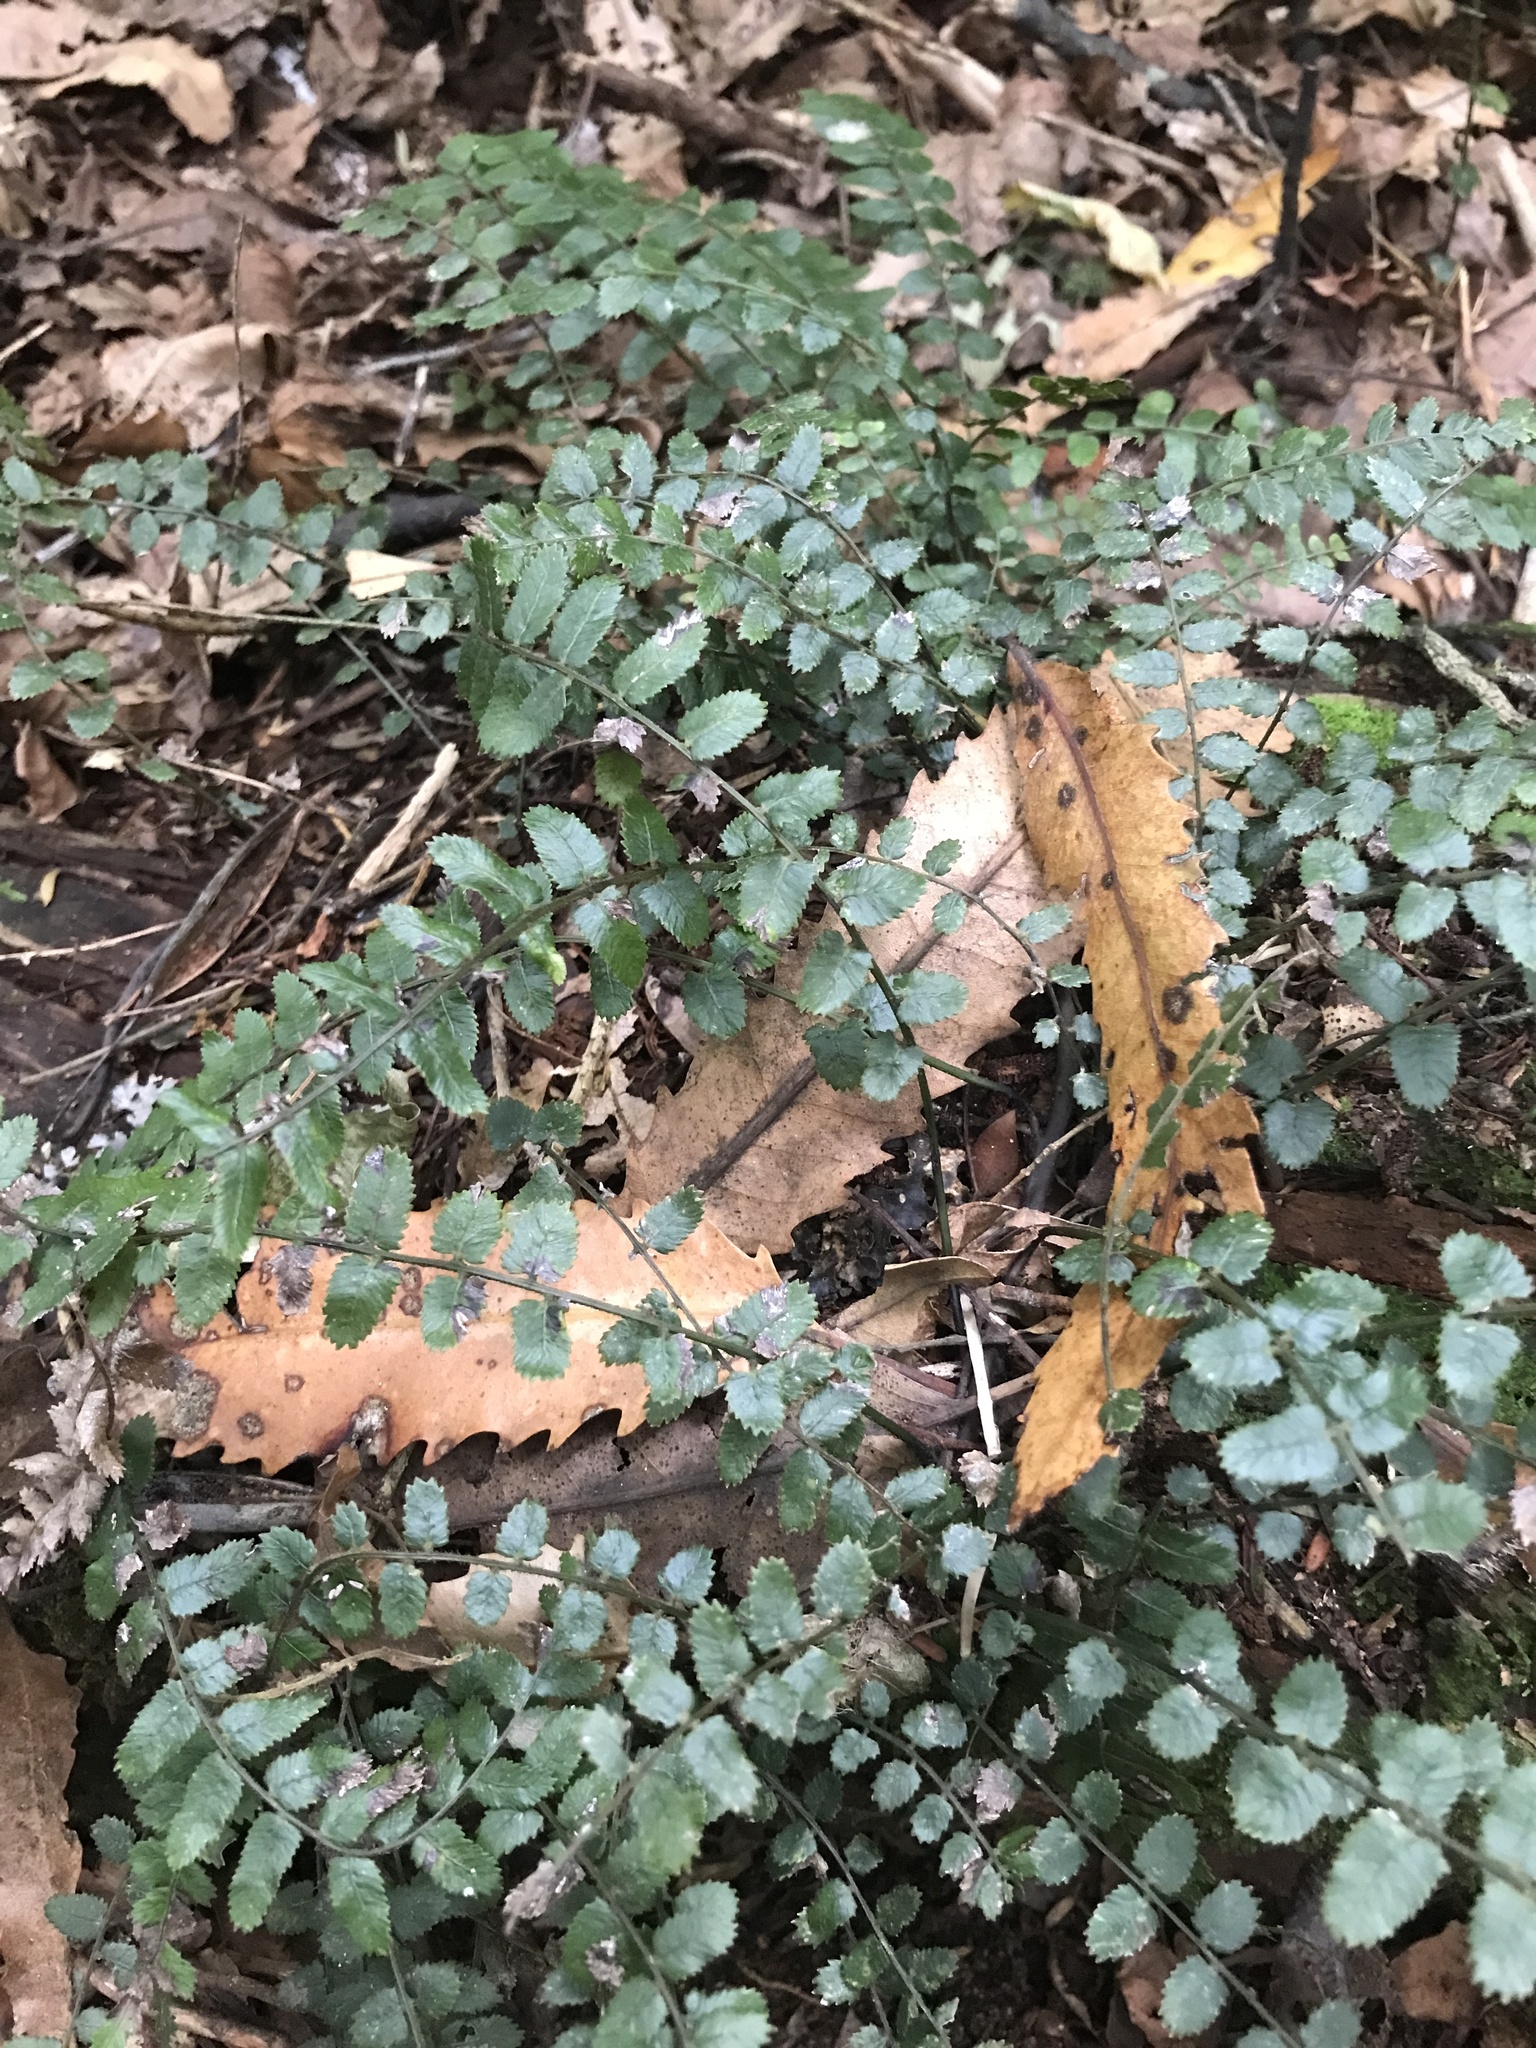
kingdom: Plantae
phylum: Tracheophyta
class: Polypodiopsida
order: Polypodiales
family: Blechnaceae
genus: Icarus
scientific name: Icarus filiformis
